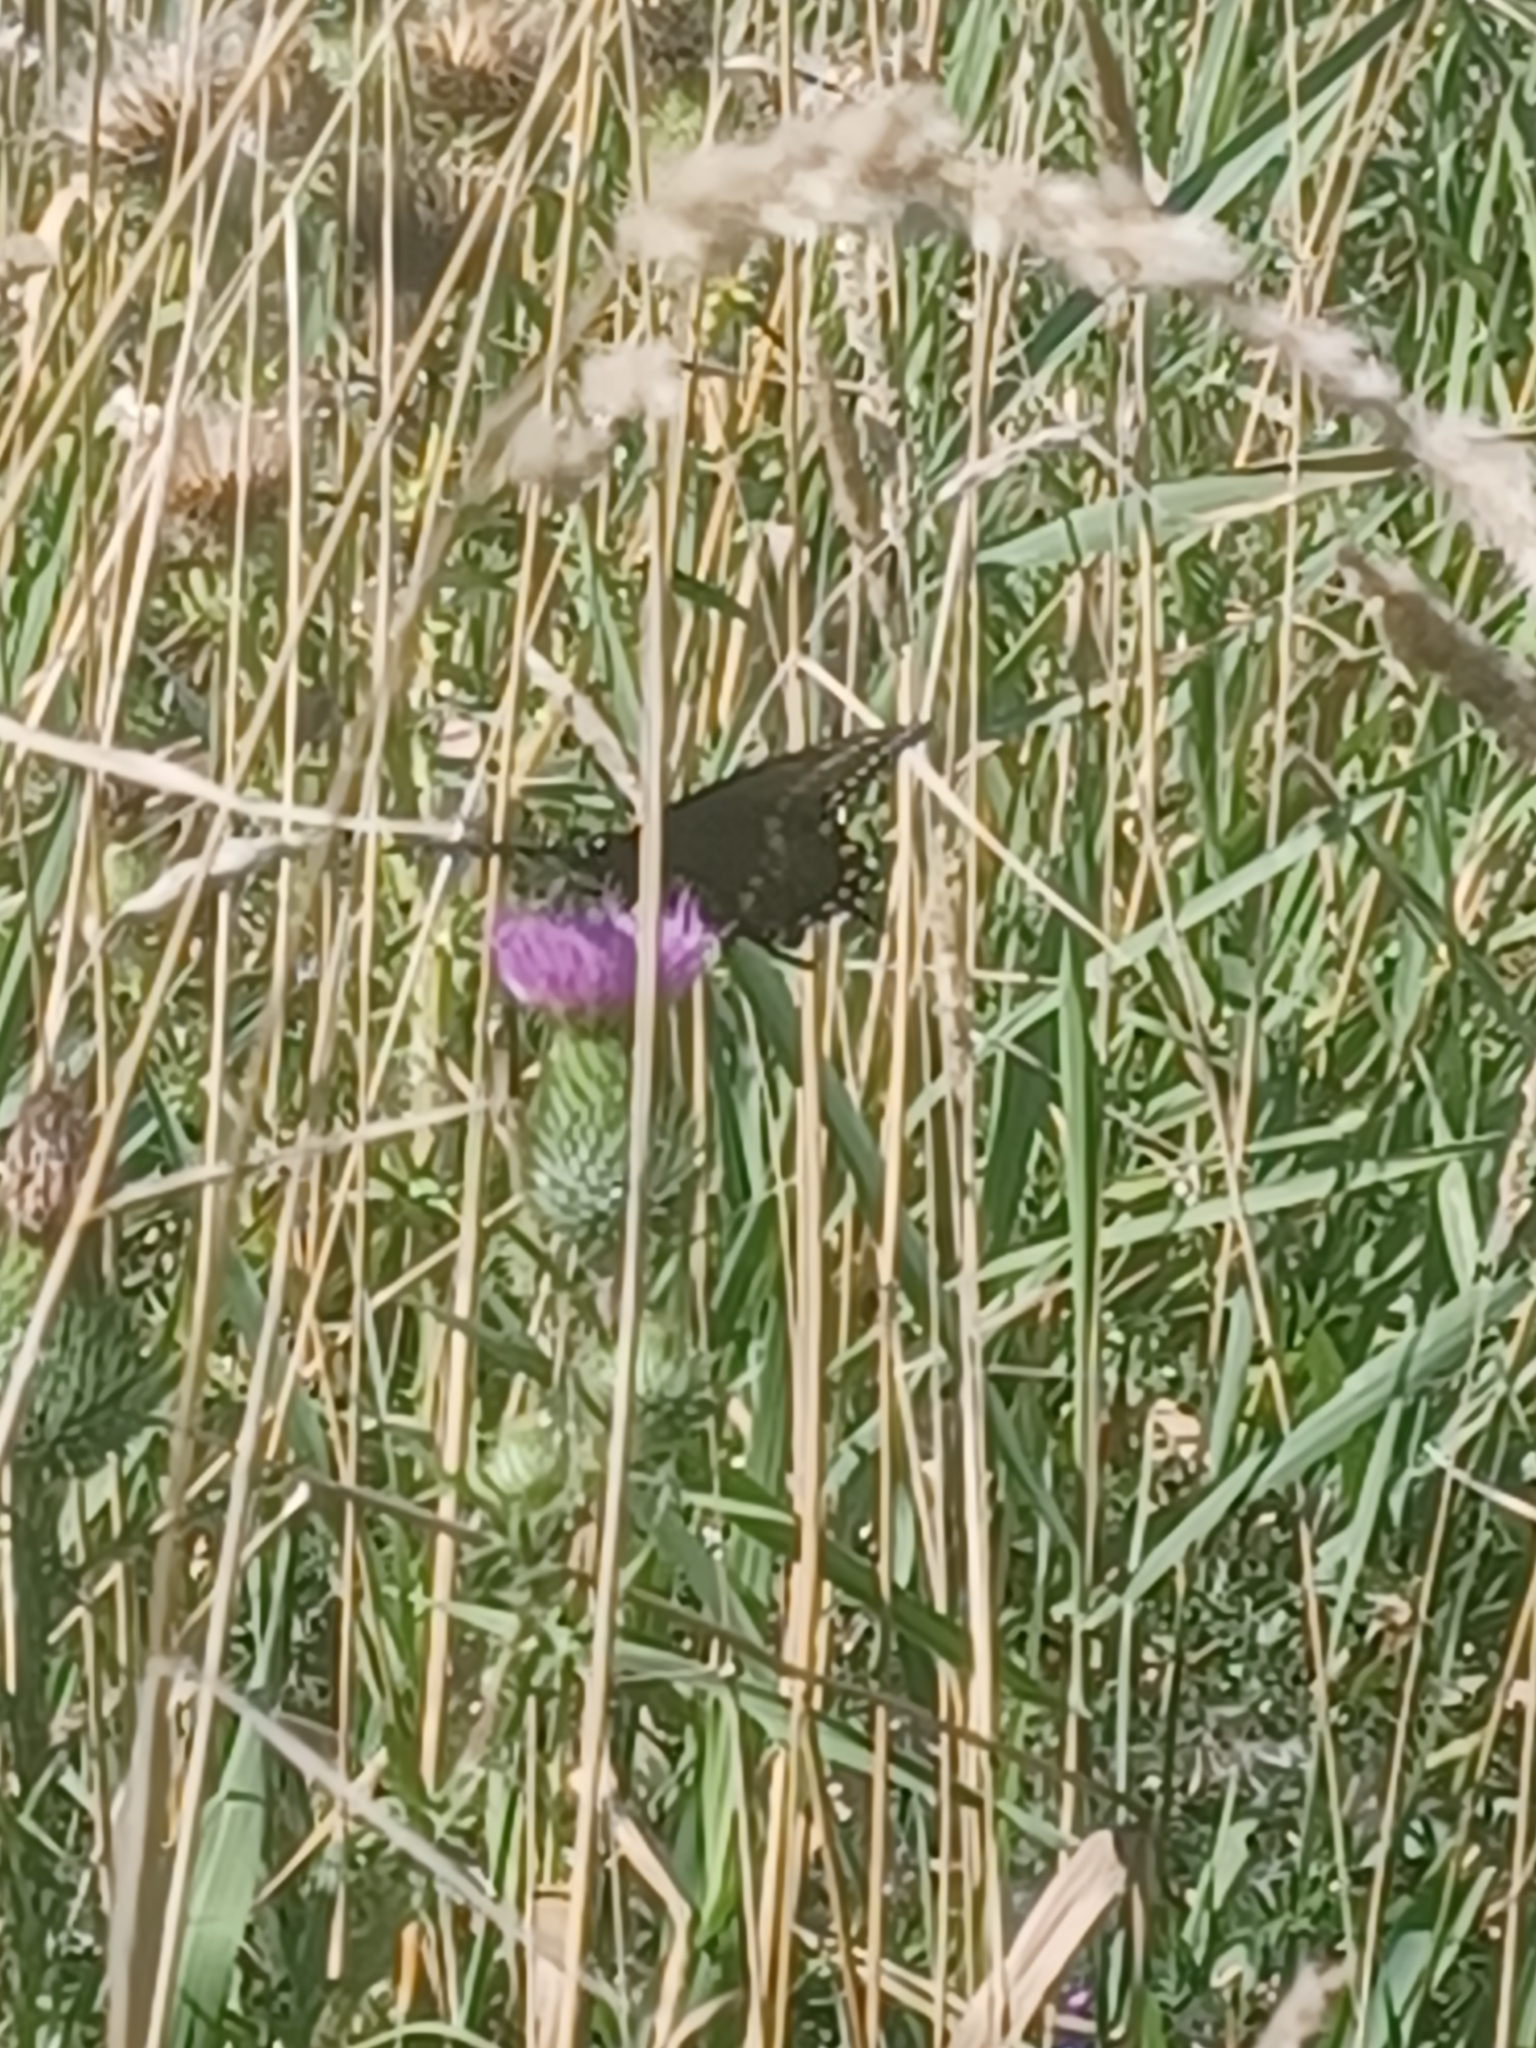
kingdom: Animalia
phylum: Arthropoda
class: Insecta
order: Lepidoptera
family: Papilionidae
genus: Papilio
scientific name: Papilio polyxenes
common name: Black swallowtail
